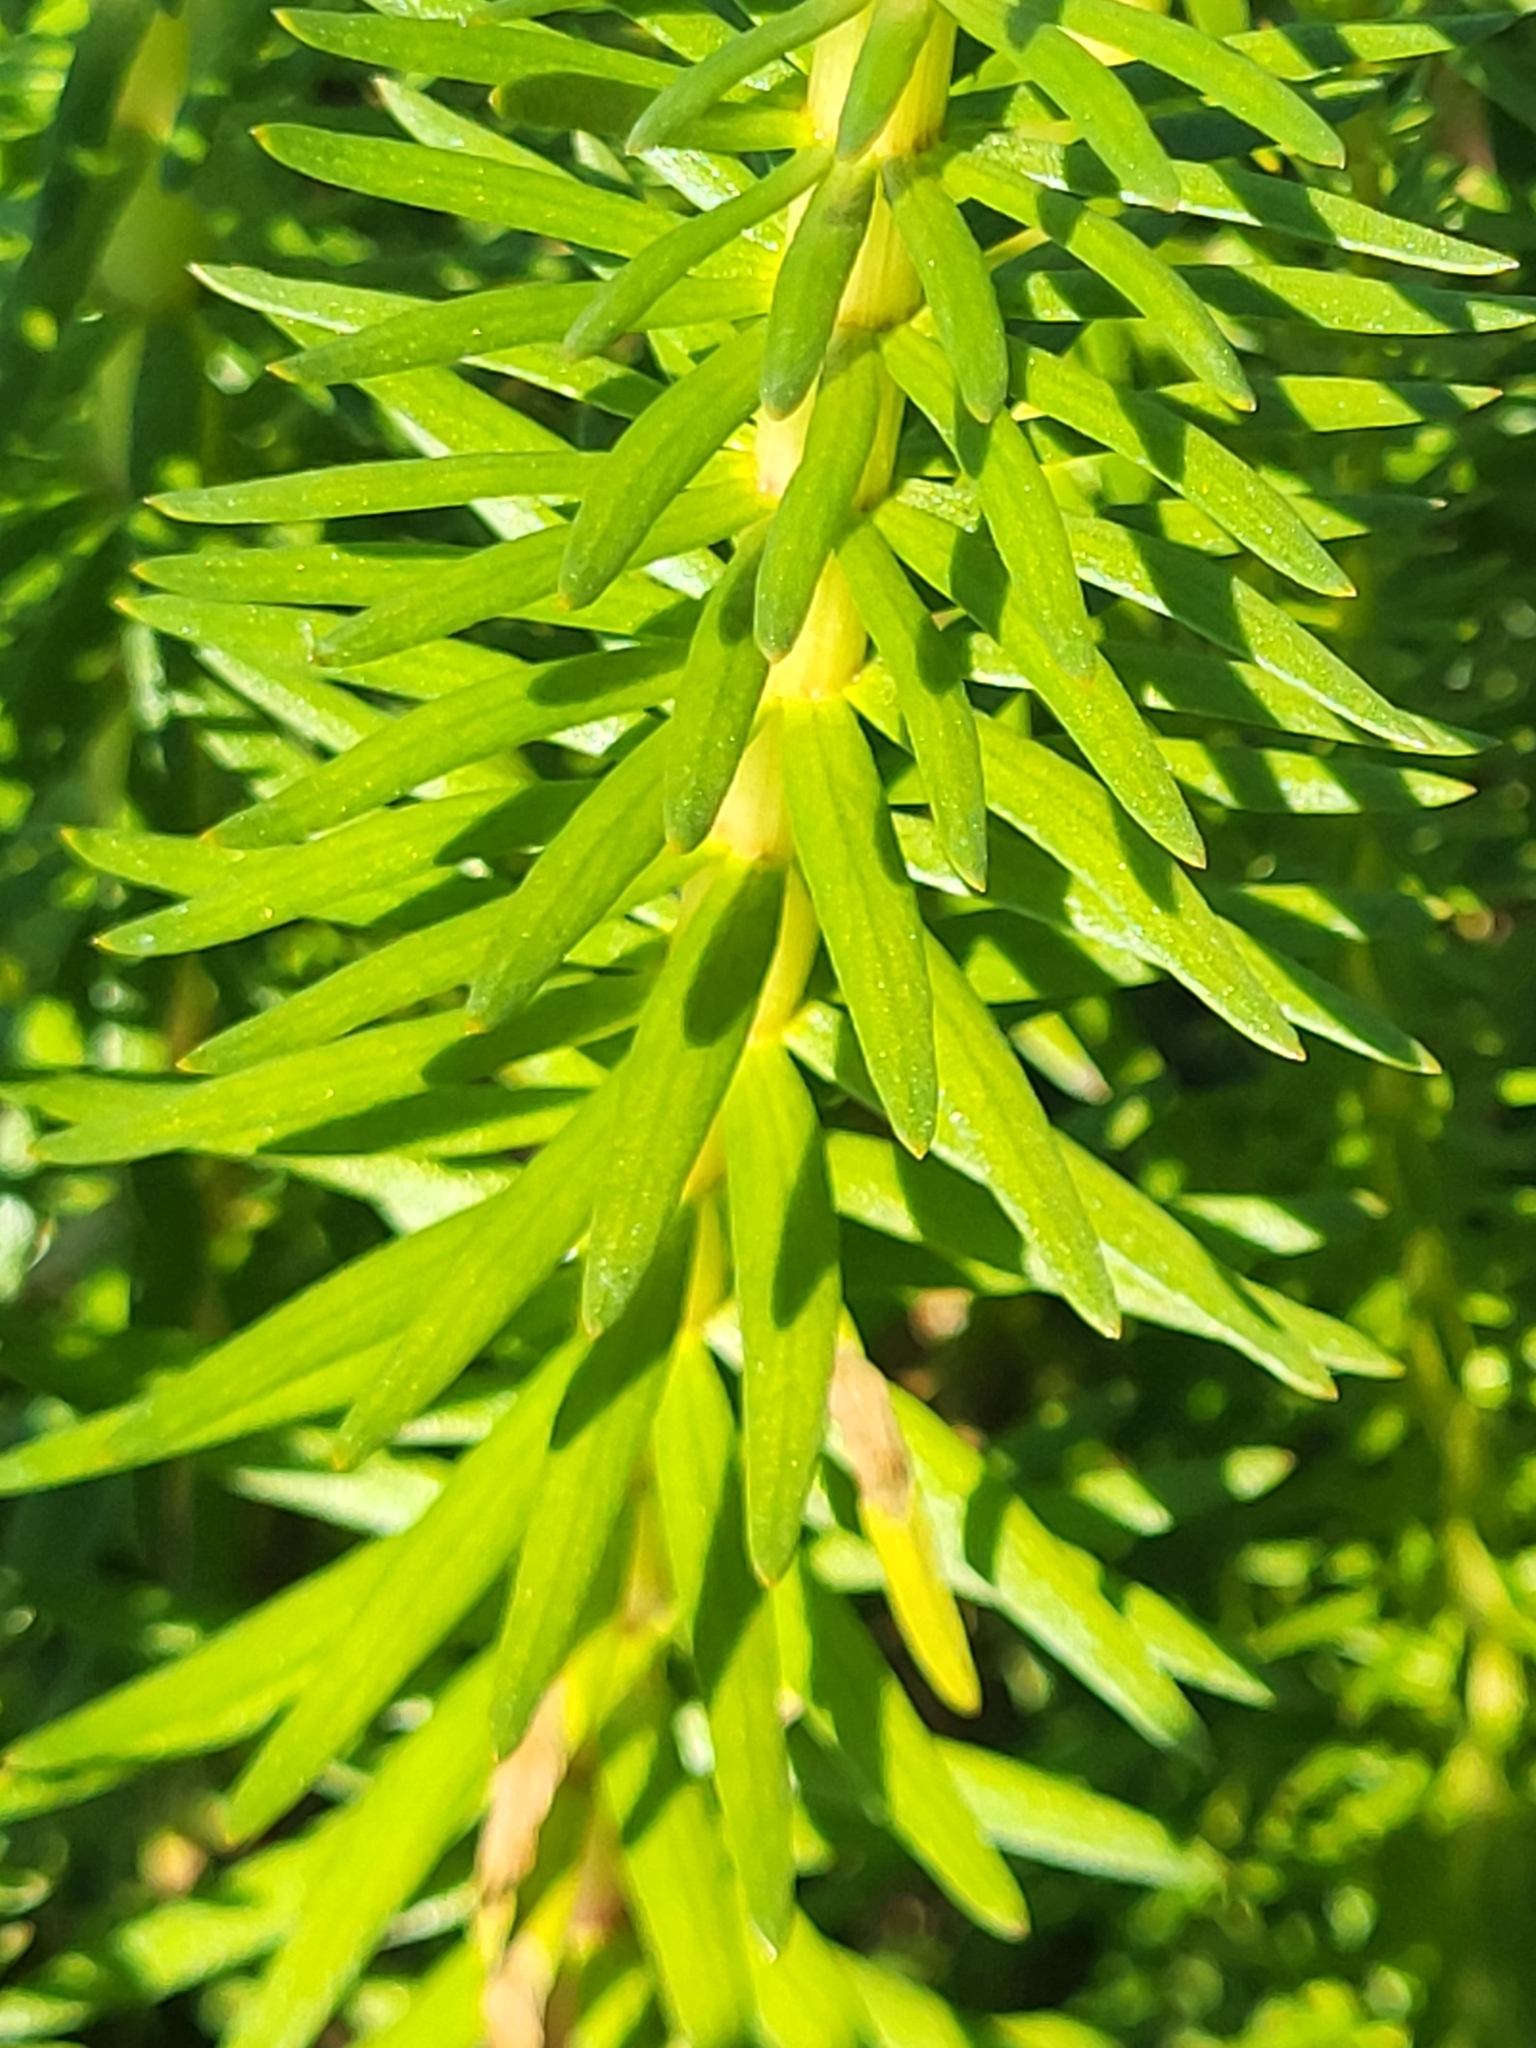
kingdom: Plantae
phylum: Tracheophyta
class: Magnoliopsida
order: Lamiales
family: Plantaginaceae
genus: Hippuris
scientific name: Hippuris vulgaris
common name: Mare's-tail
